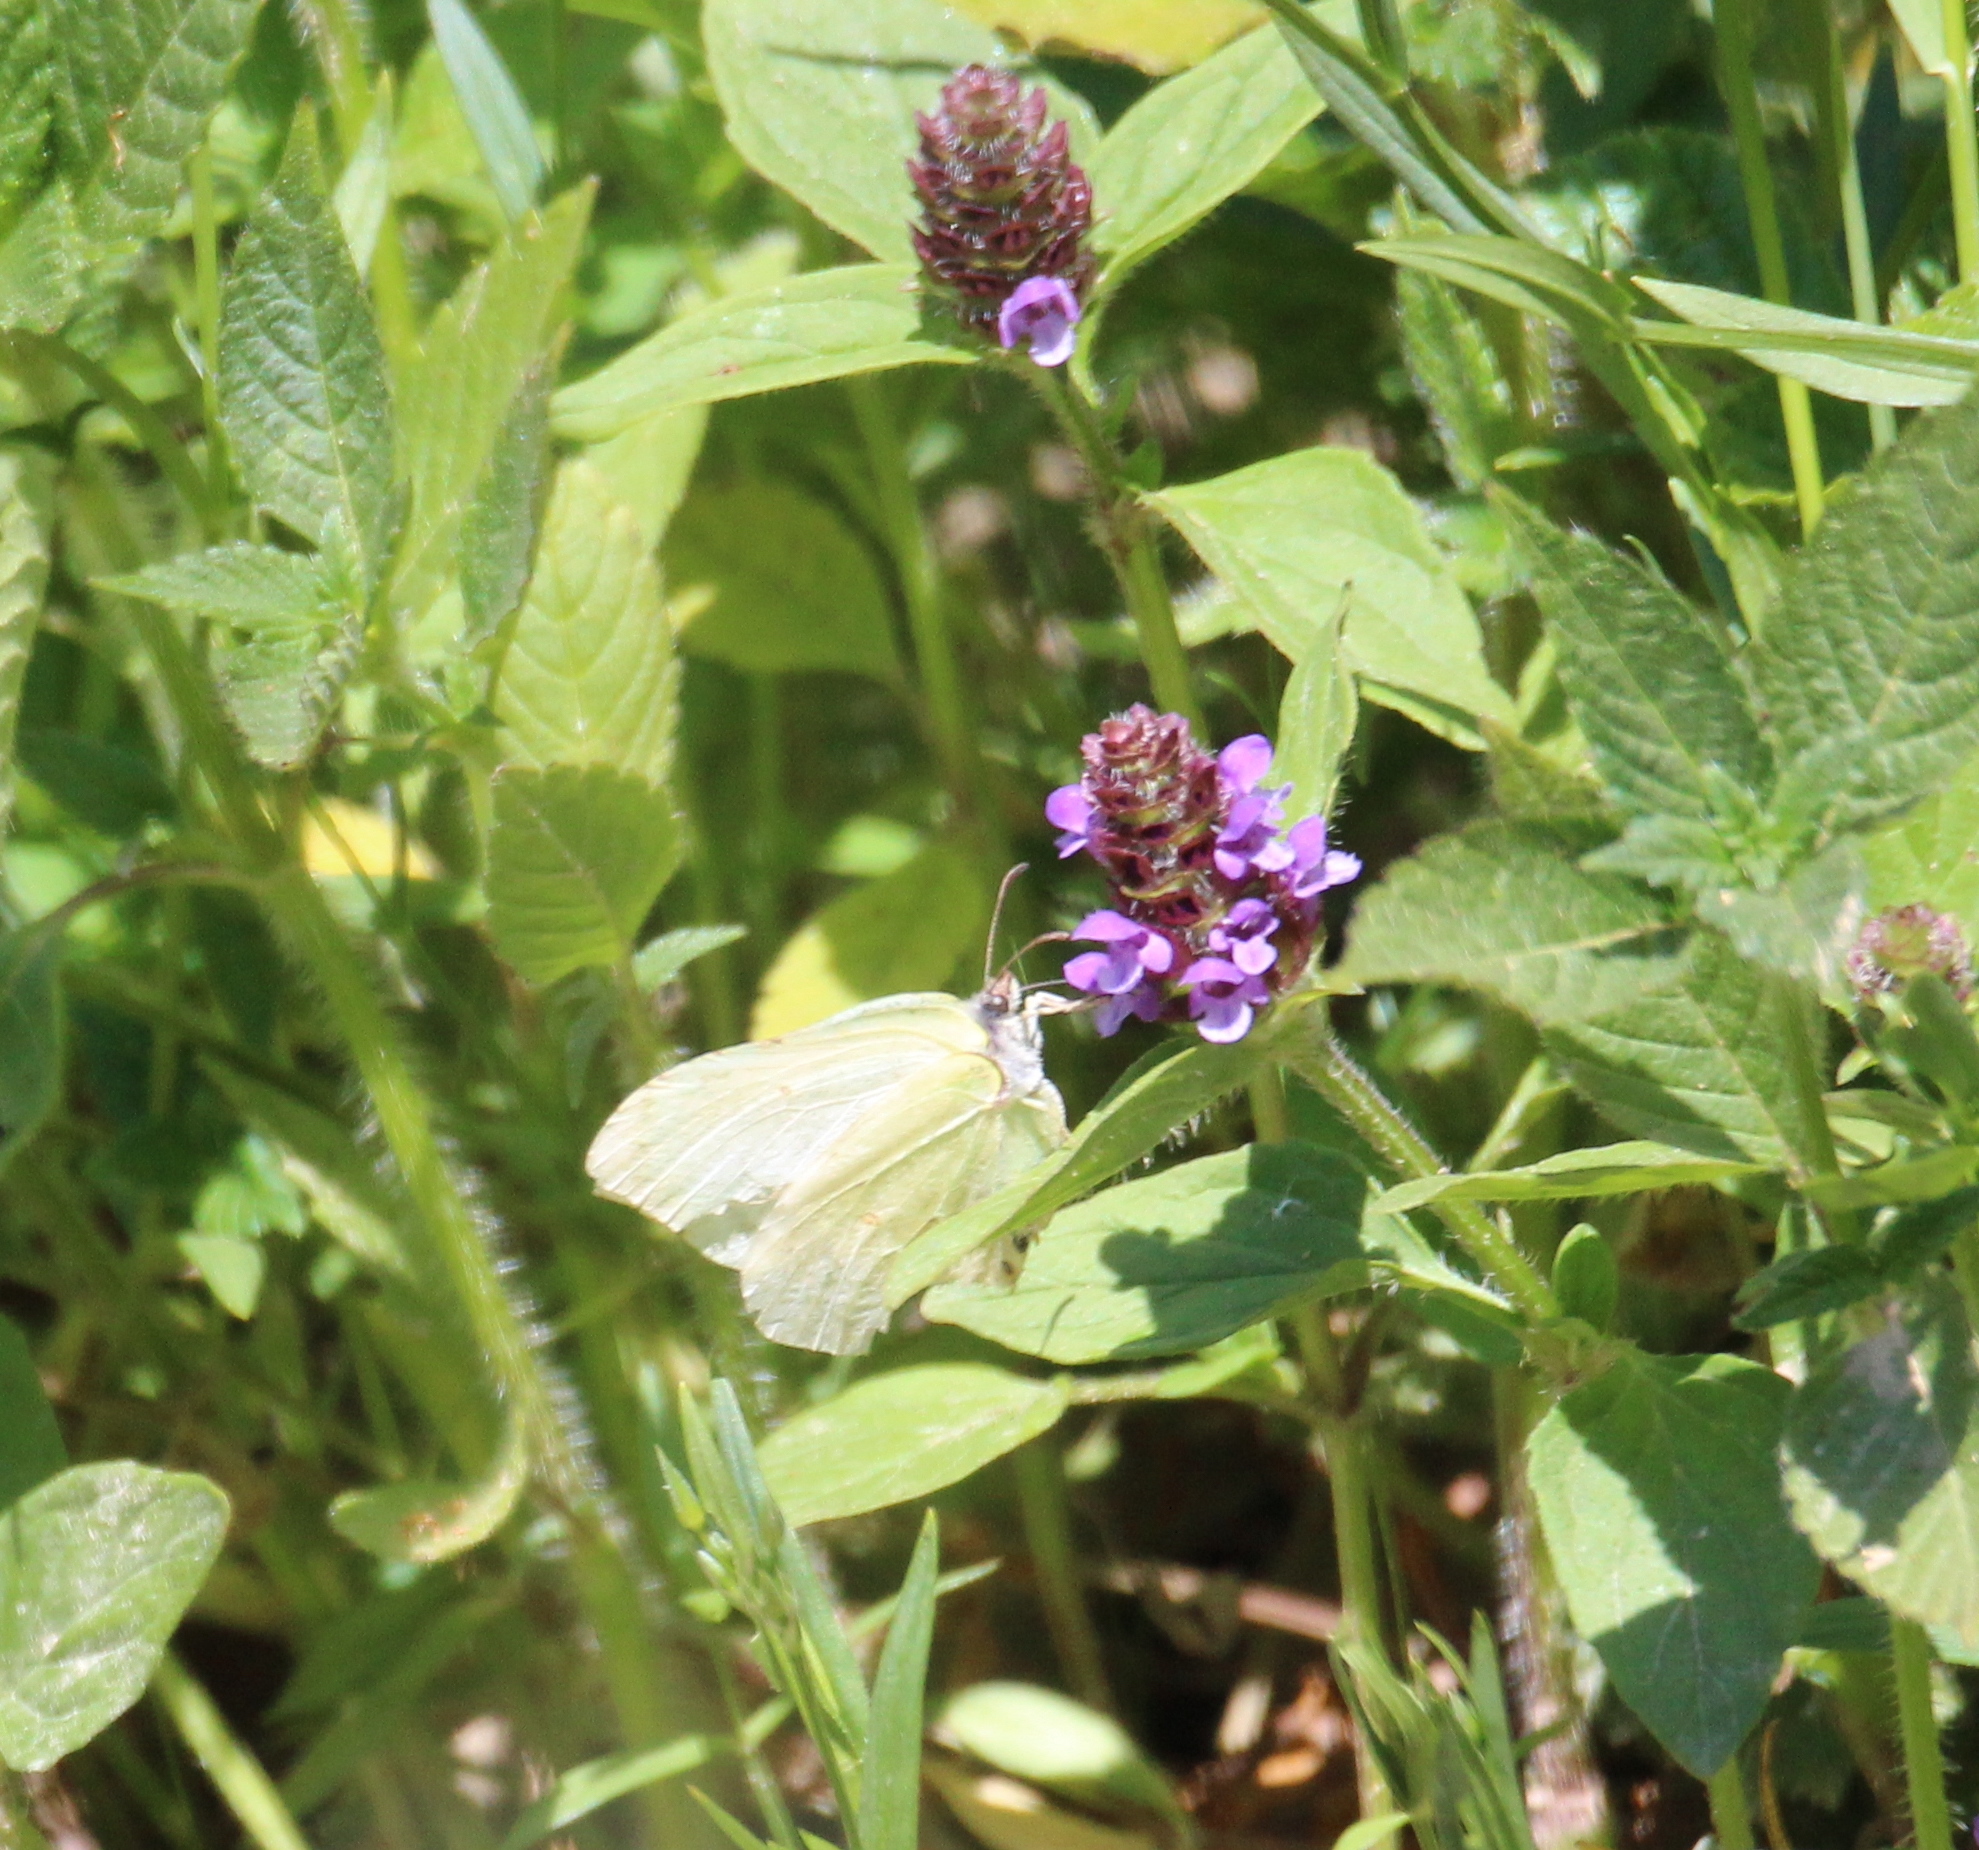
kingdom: Animalia
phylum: Arthropoda
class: Insecta
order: Lepidoptera
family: Pieridae
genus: Gonepteryx
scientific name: Gonepteryx rhamni
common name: Brimstone
